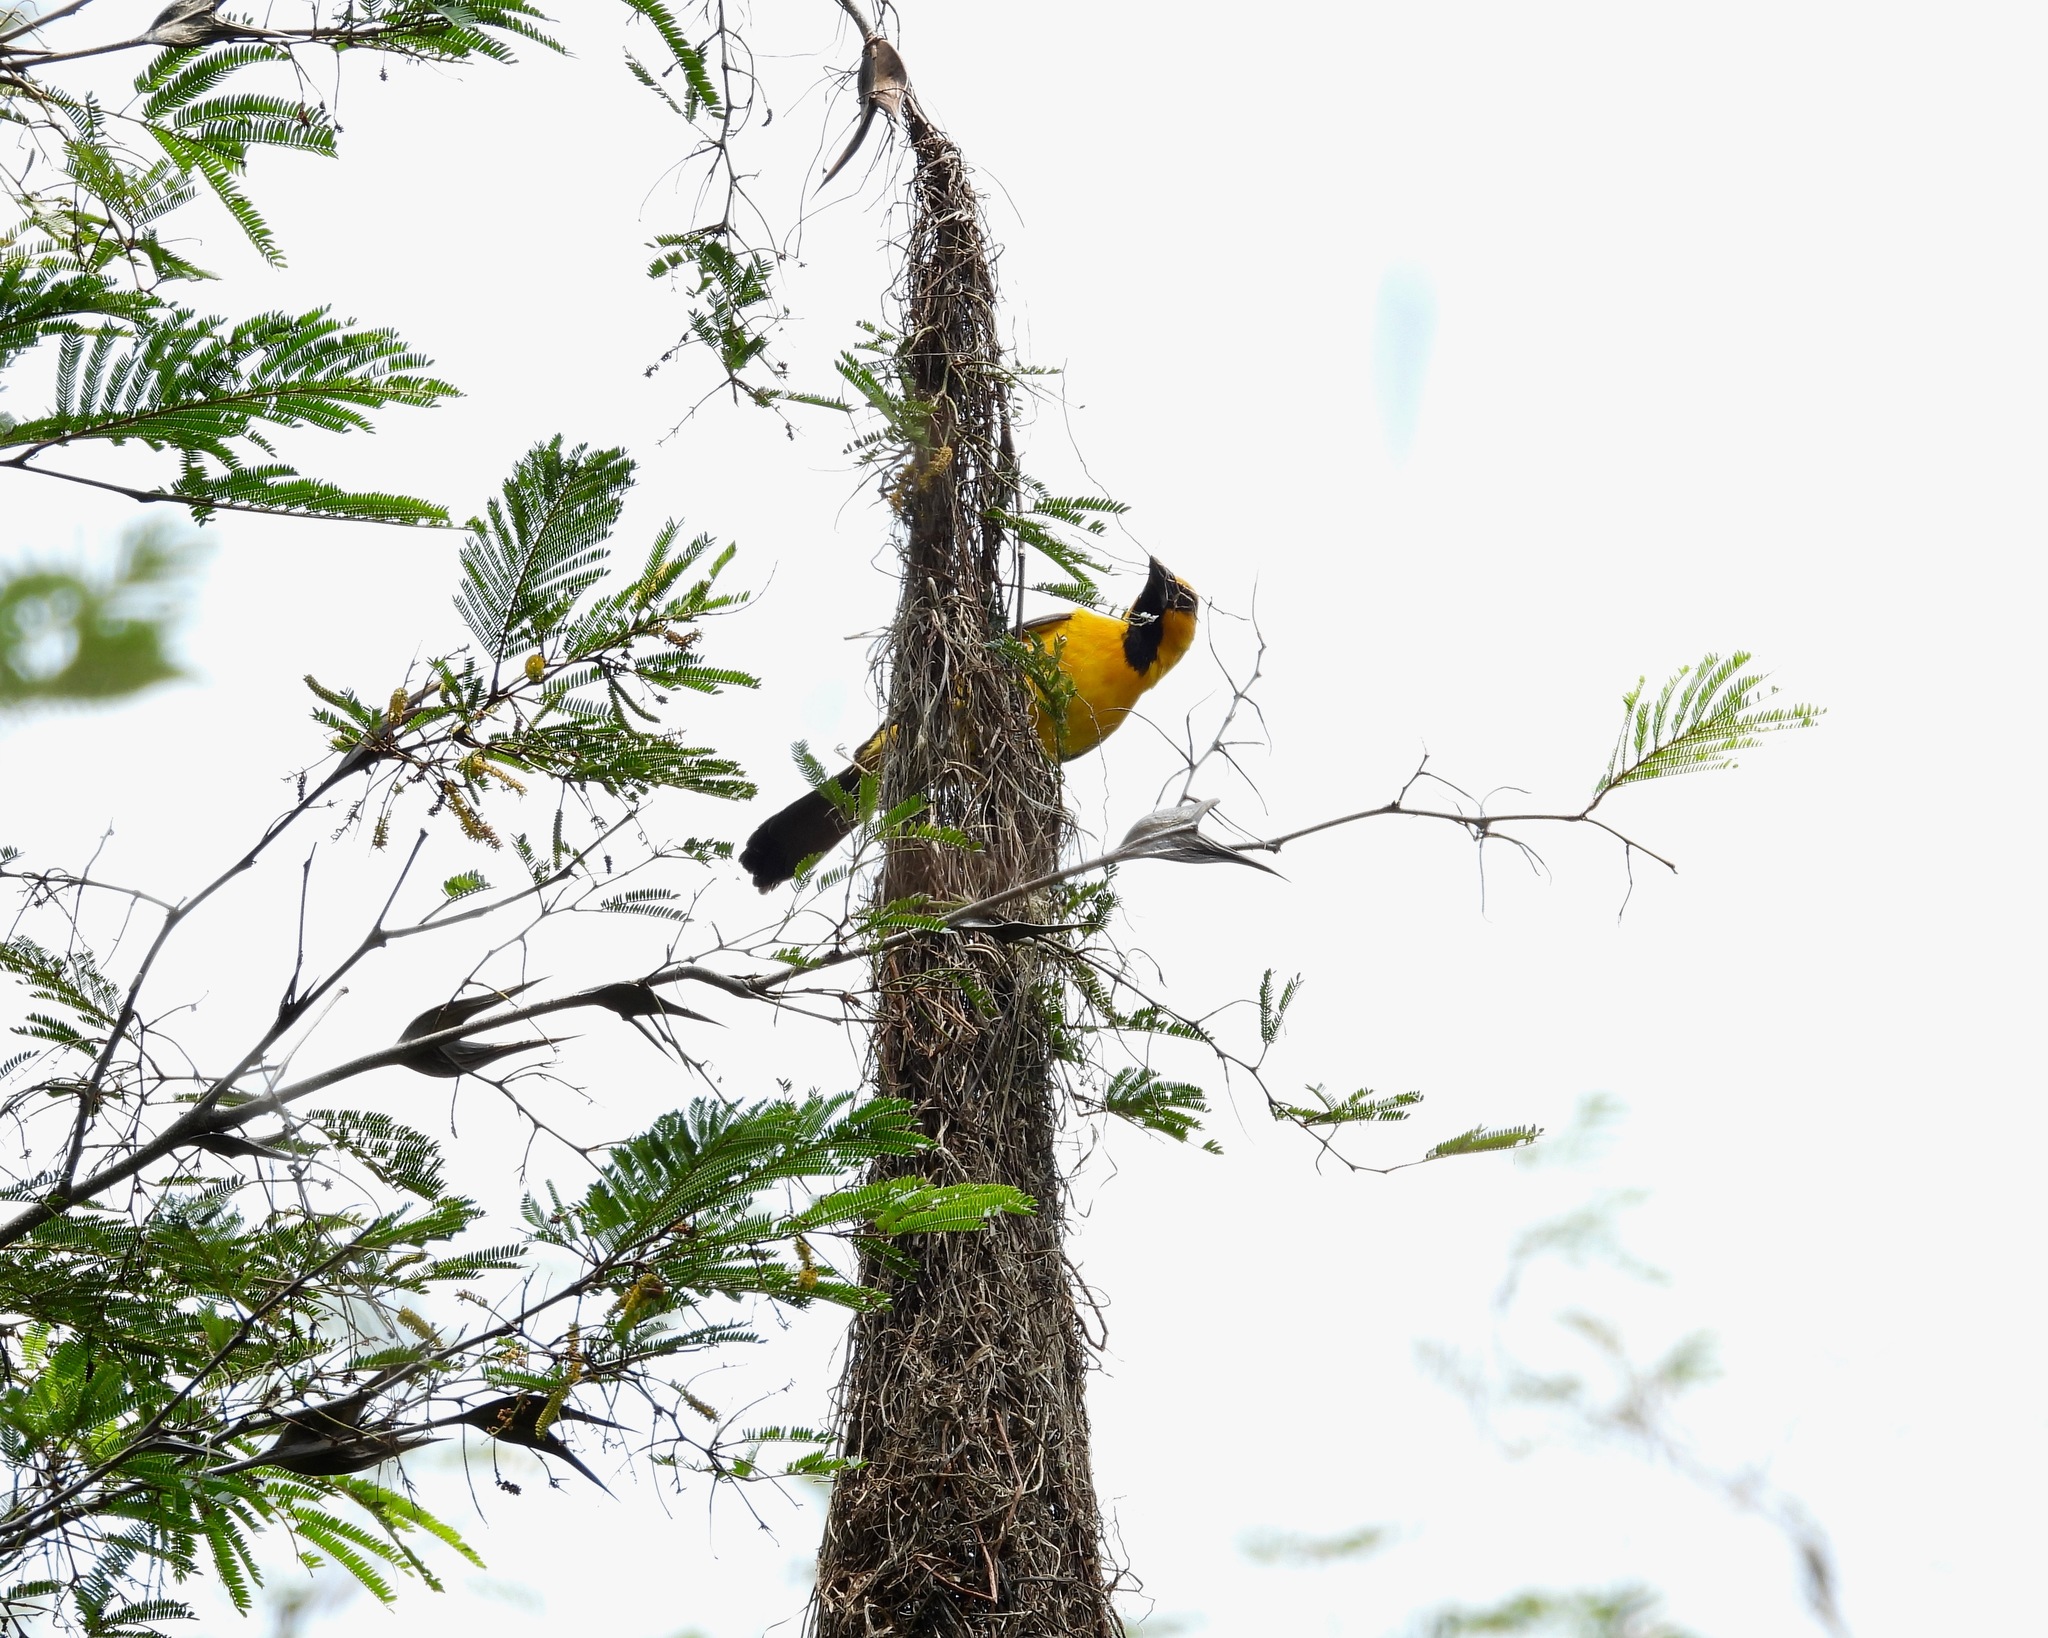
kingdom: Animalia
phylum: Chordata
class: Aves
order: Passeriformes
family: Icteridae
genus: Icterus
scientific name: Icterus gularis
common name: Altamira oriole
